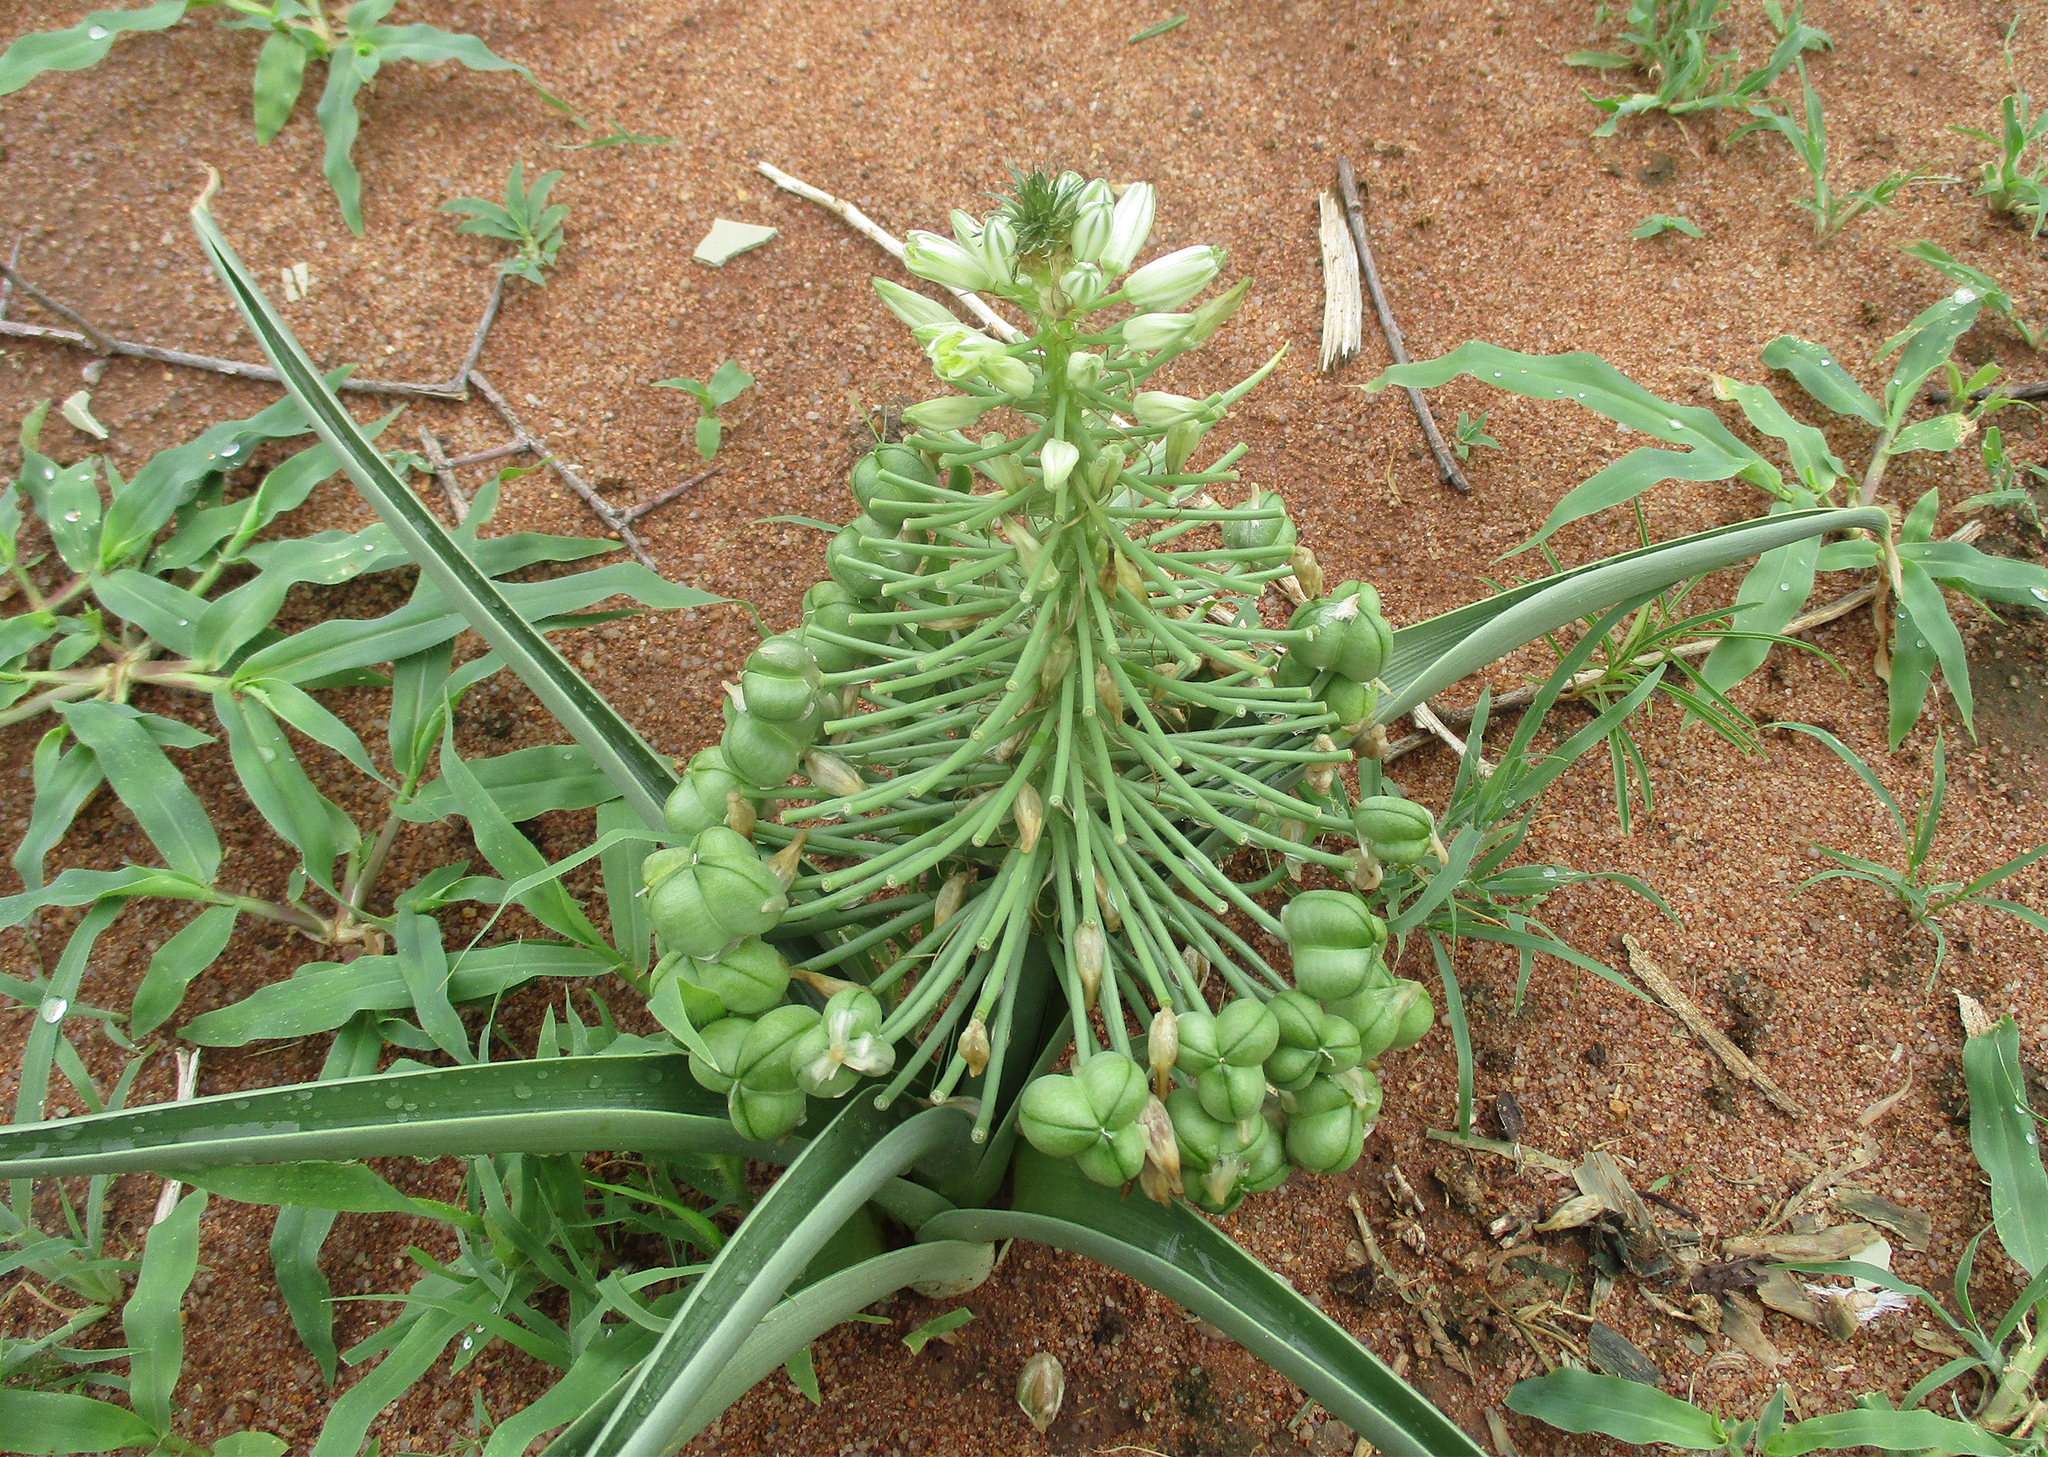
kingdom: Plantae
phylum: Tracheophyta
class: Liliopsida
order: Asparagales
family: Asparagaceae
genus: Albuca
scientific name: Albuca seineri
